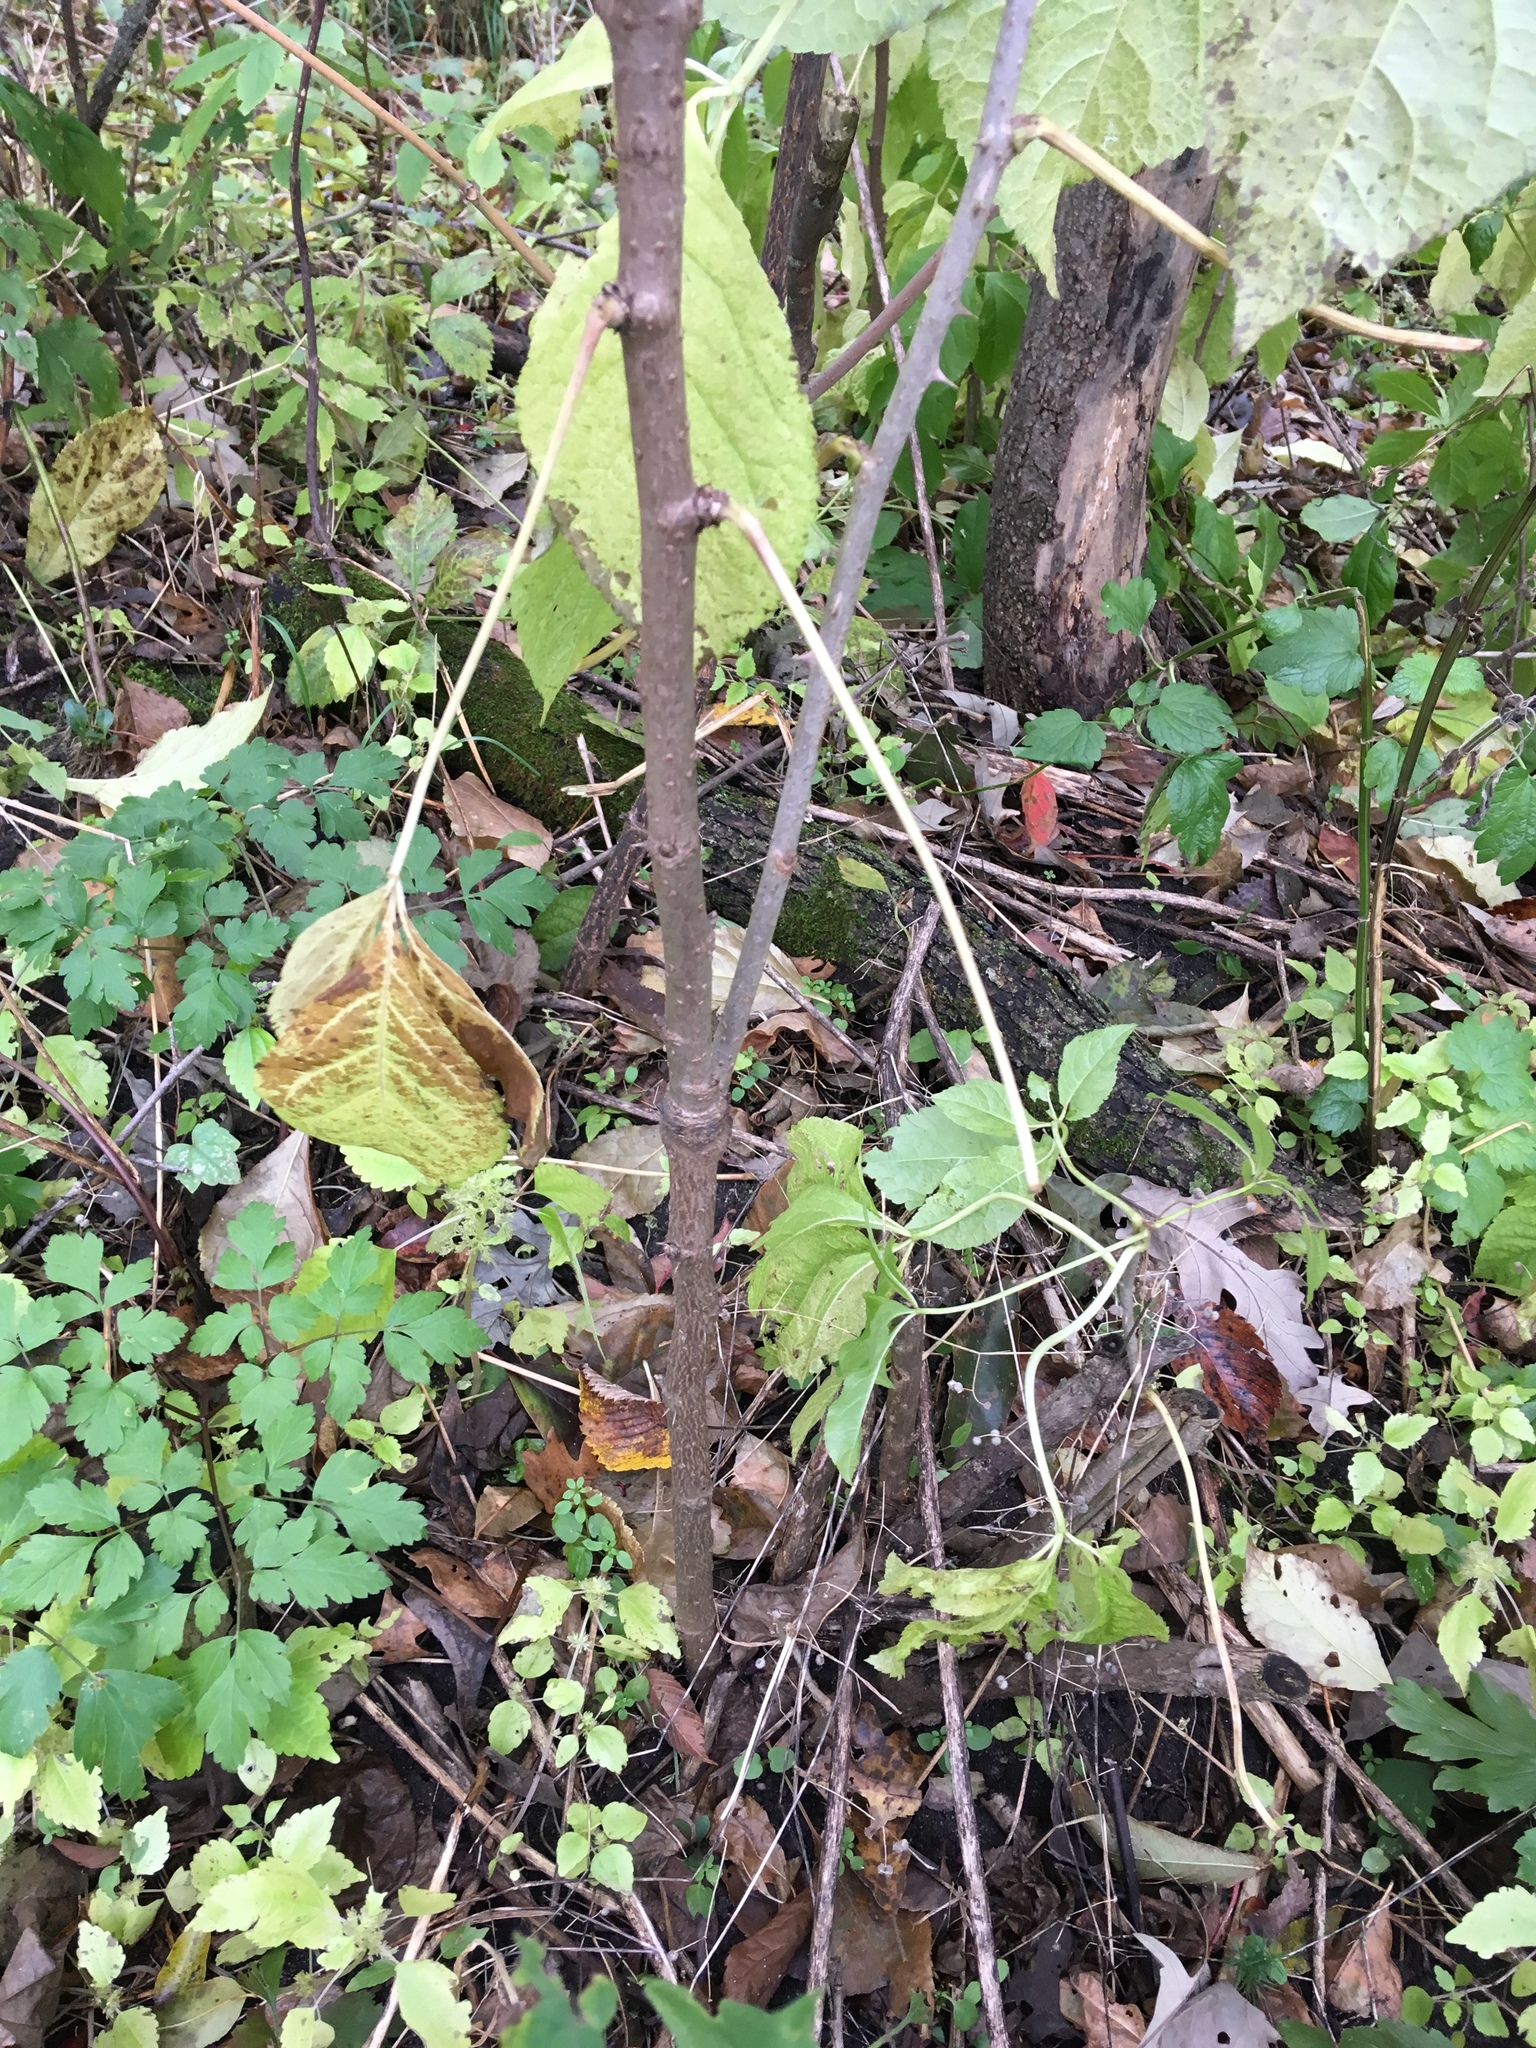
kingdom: Plantae
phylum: Tracheophyta
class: Magnoliopsida
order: Apiales
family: Araliaceae
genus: Eleutherococcus
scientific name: Eleutherococcus sessiliflorus
